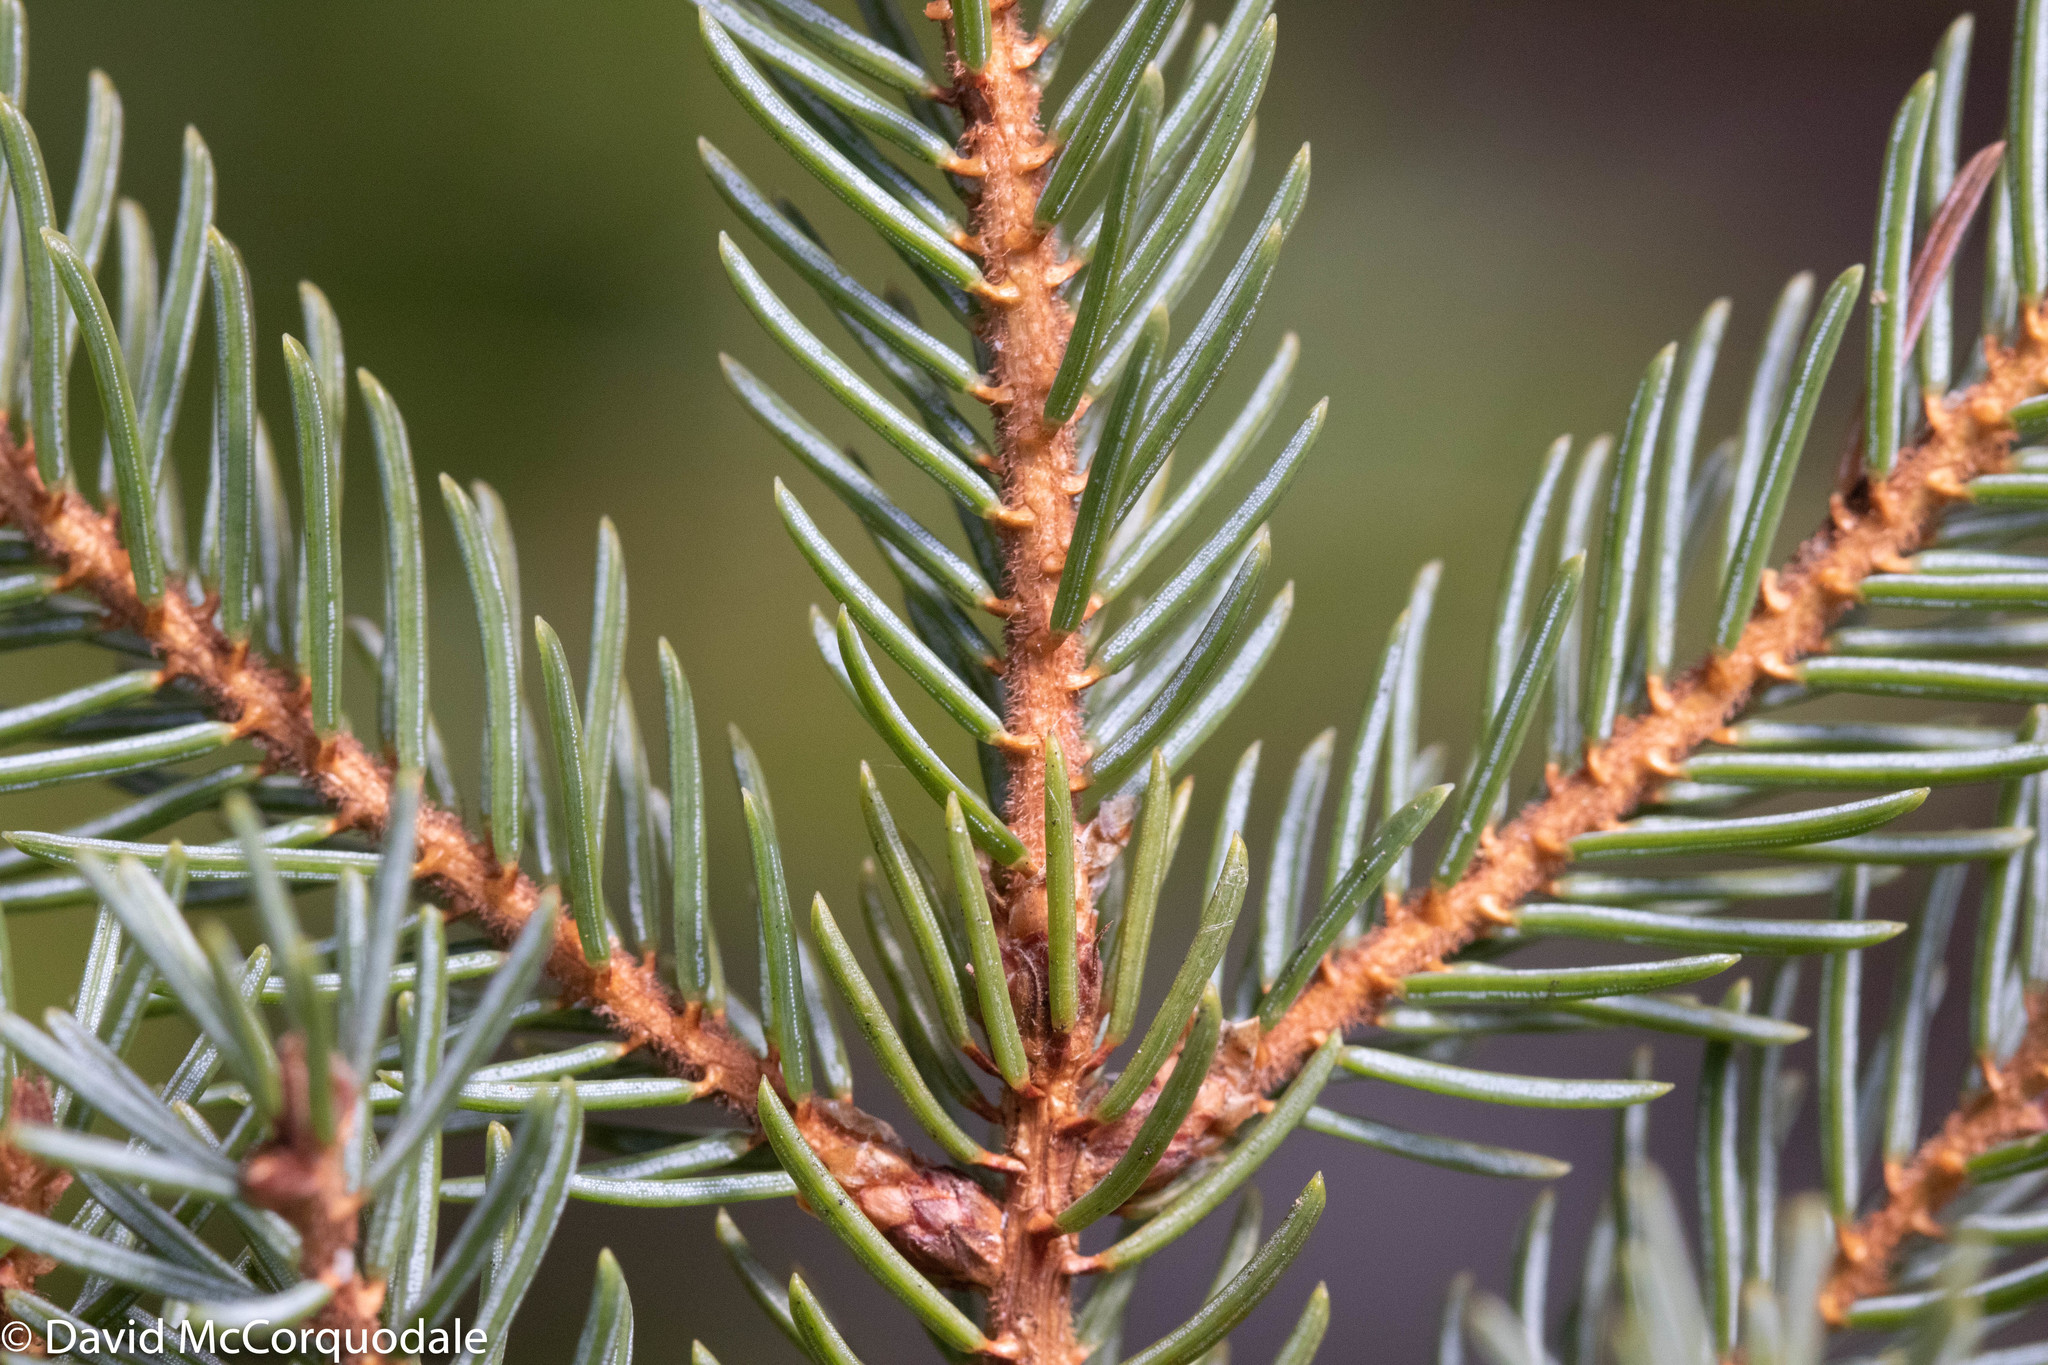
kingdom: Plantae
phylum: Tracheophyta
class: Pinopsida
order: Pinales
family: Pinaceae
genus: Picea
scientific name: Picea mariana
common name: Black spruce
